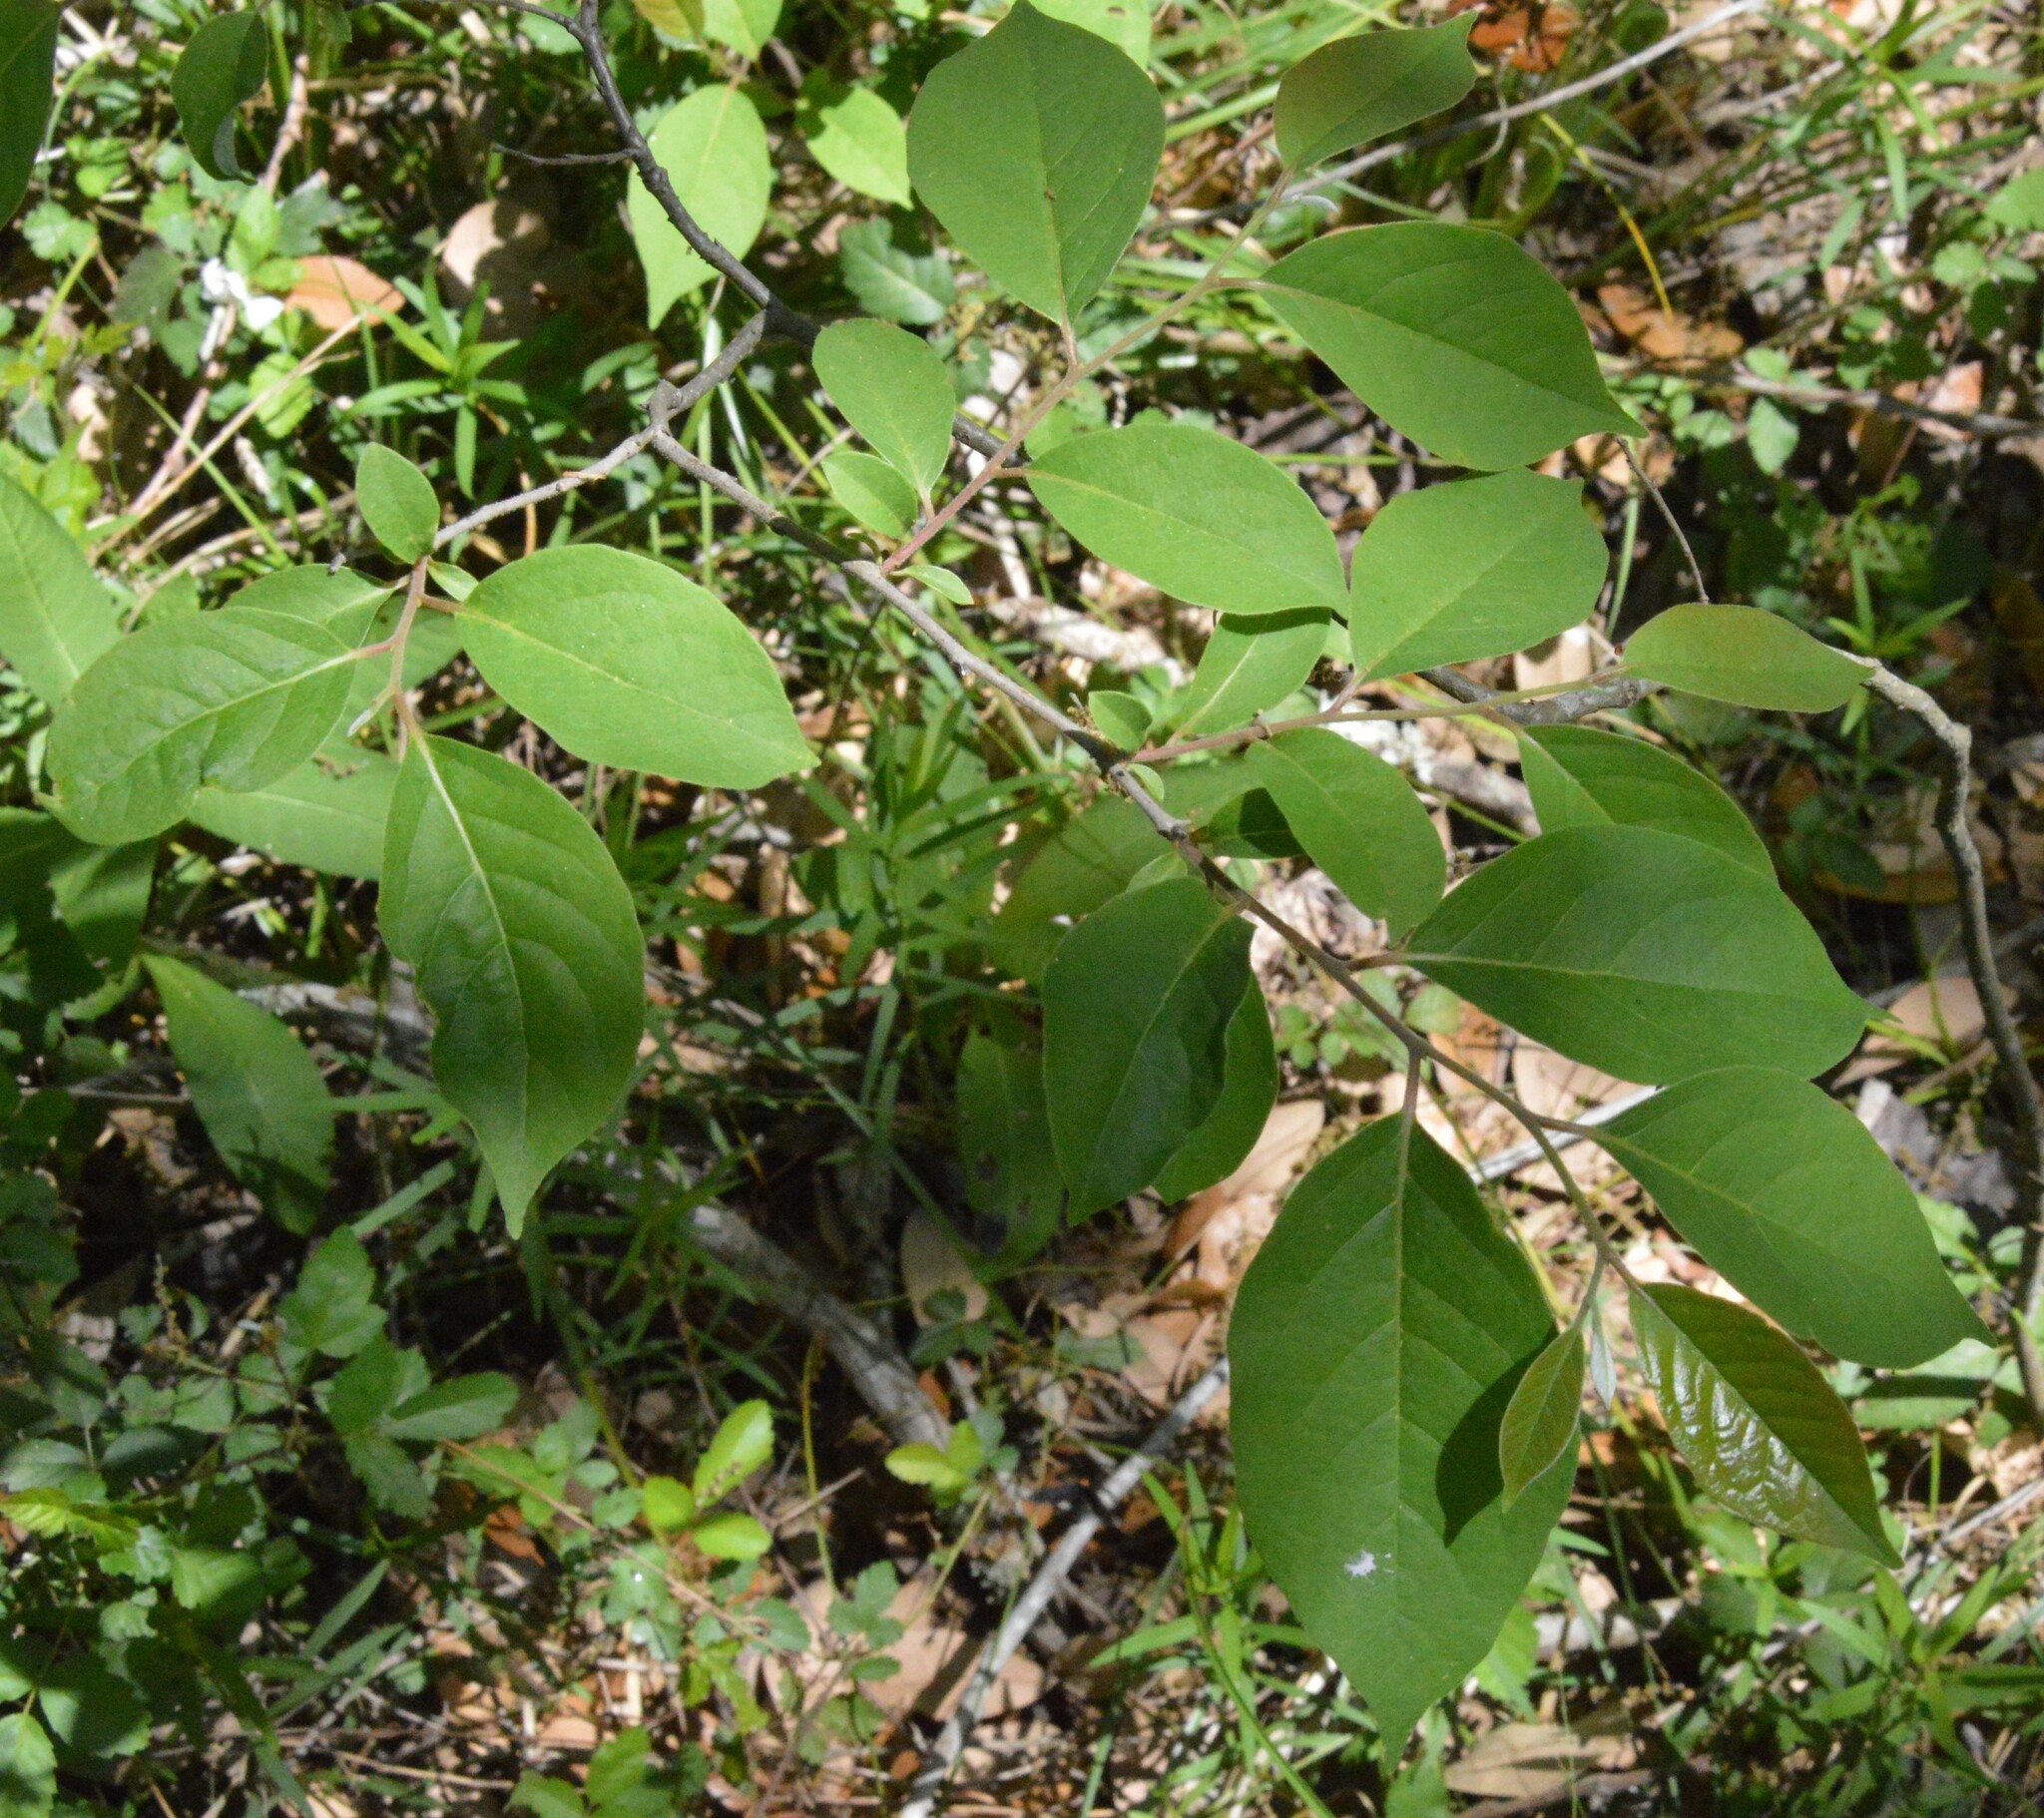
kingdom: Plantae
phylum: Tracheophyta
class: Magnoliopsida
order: Ericales
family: Ebenaceae
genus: Diospyros
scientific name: Diospyros virginiana
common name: Persimmon
